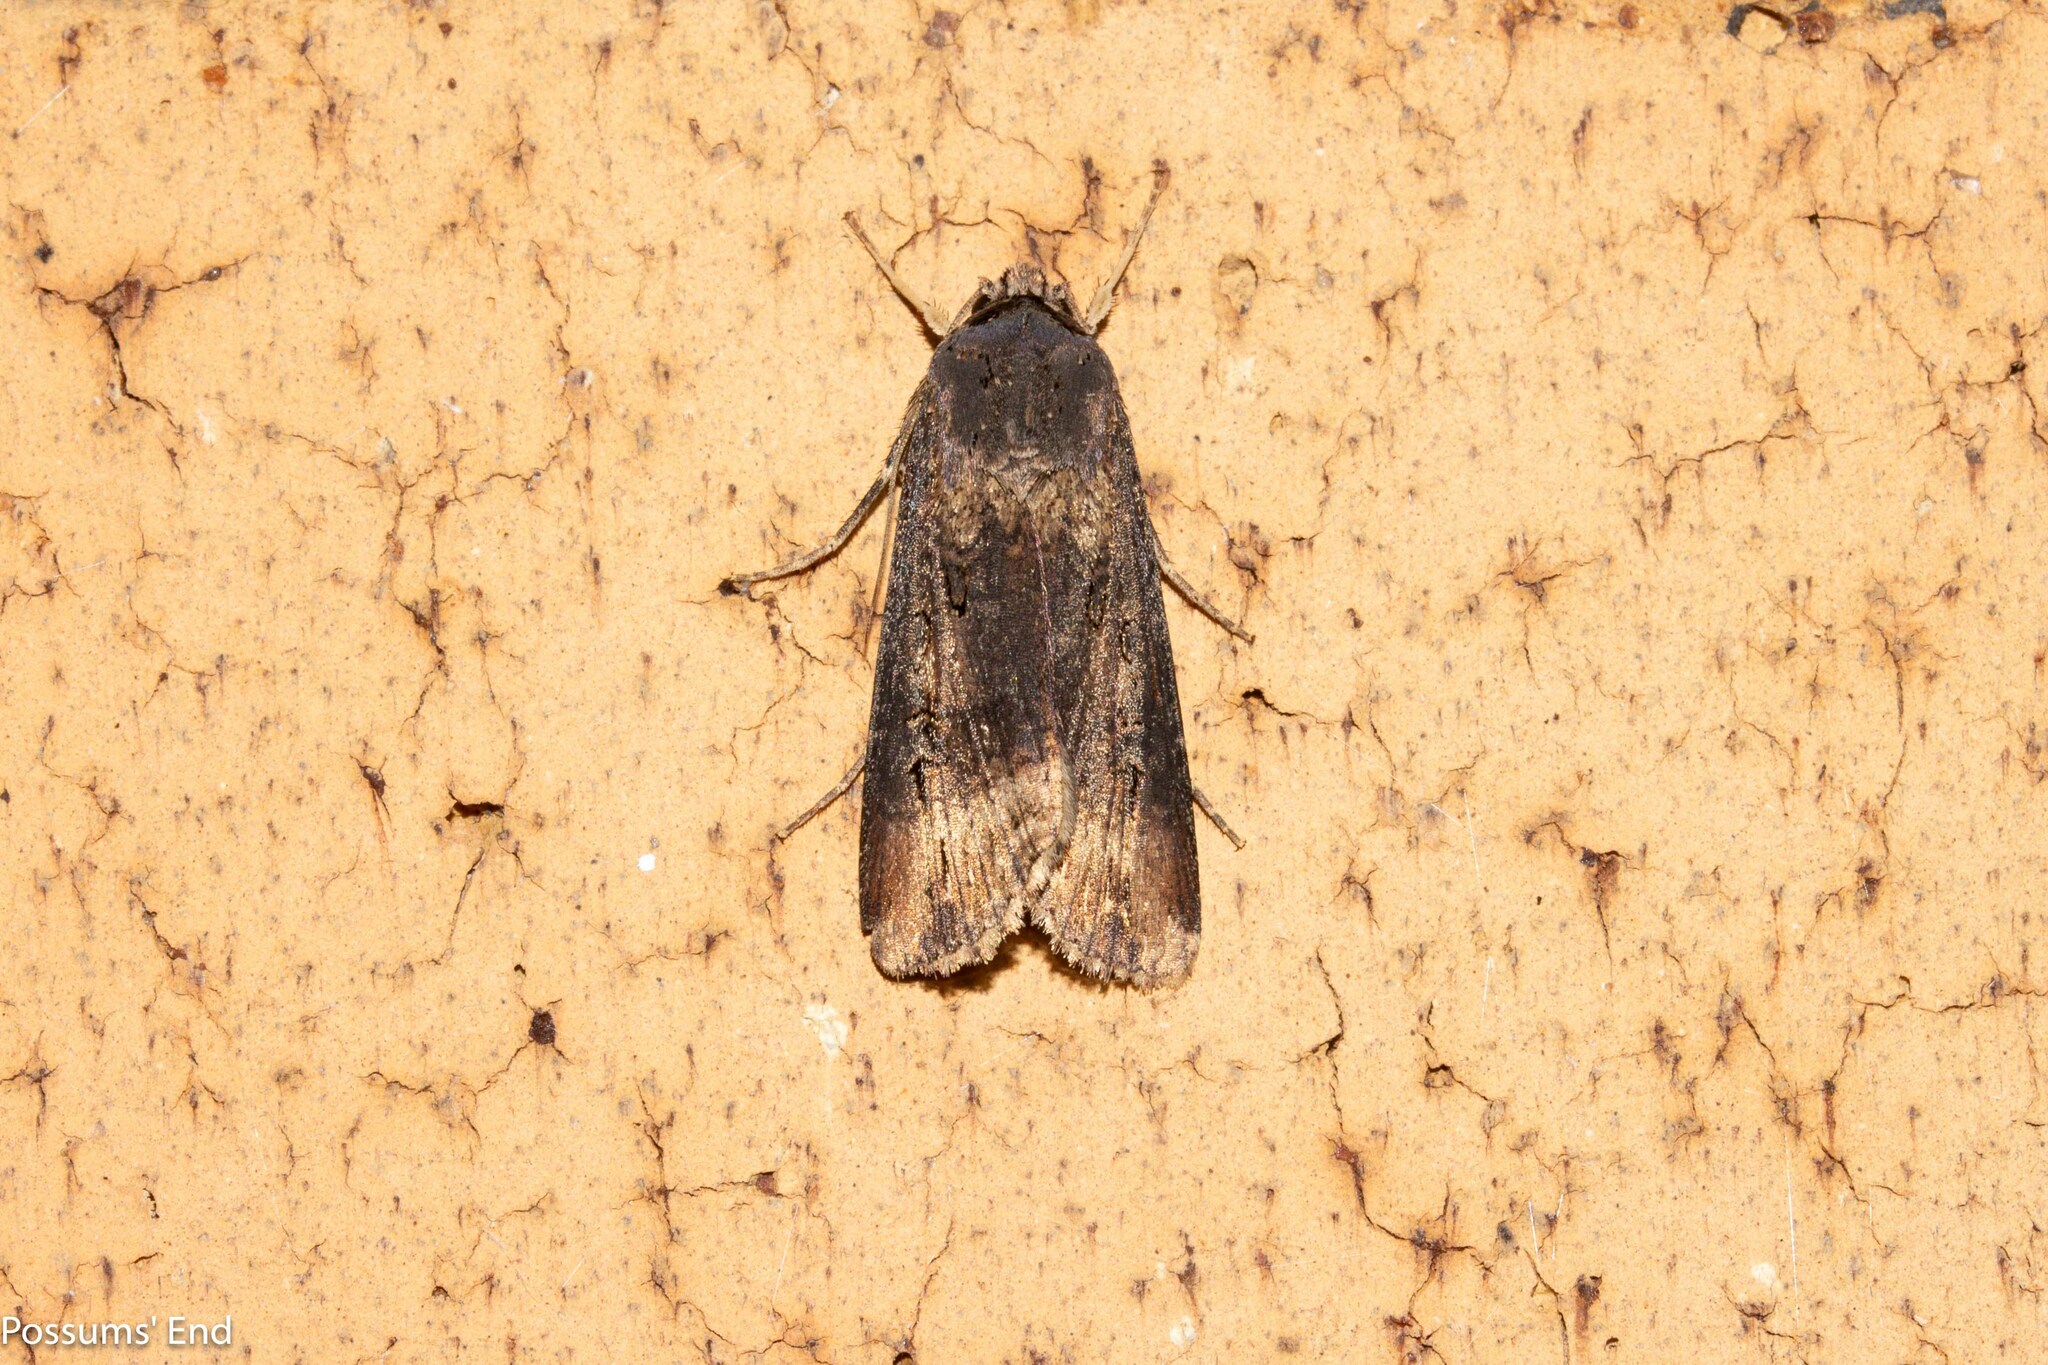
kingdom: Animalia
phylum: Arthropoda
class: Insecta
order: Lepidoptera
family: Noctuidae
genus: Agrotis
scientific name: Agrotis ipsilon
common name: Dark sword-grass
